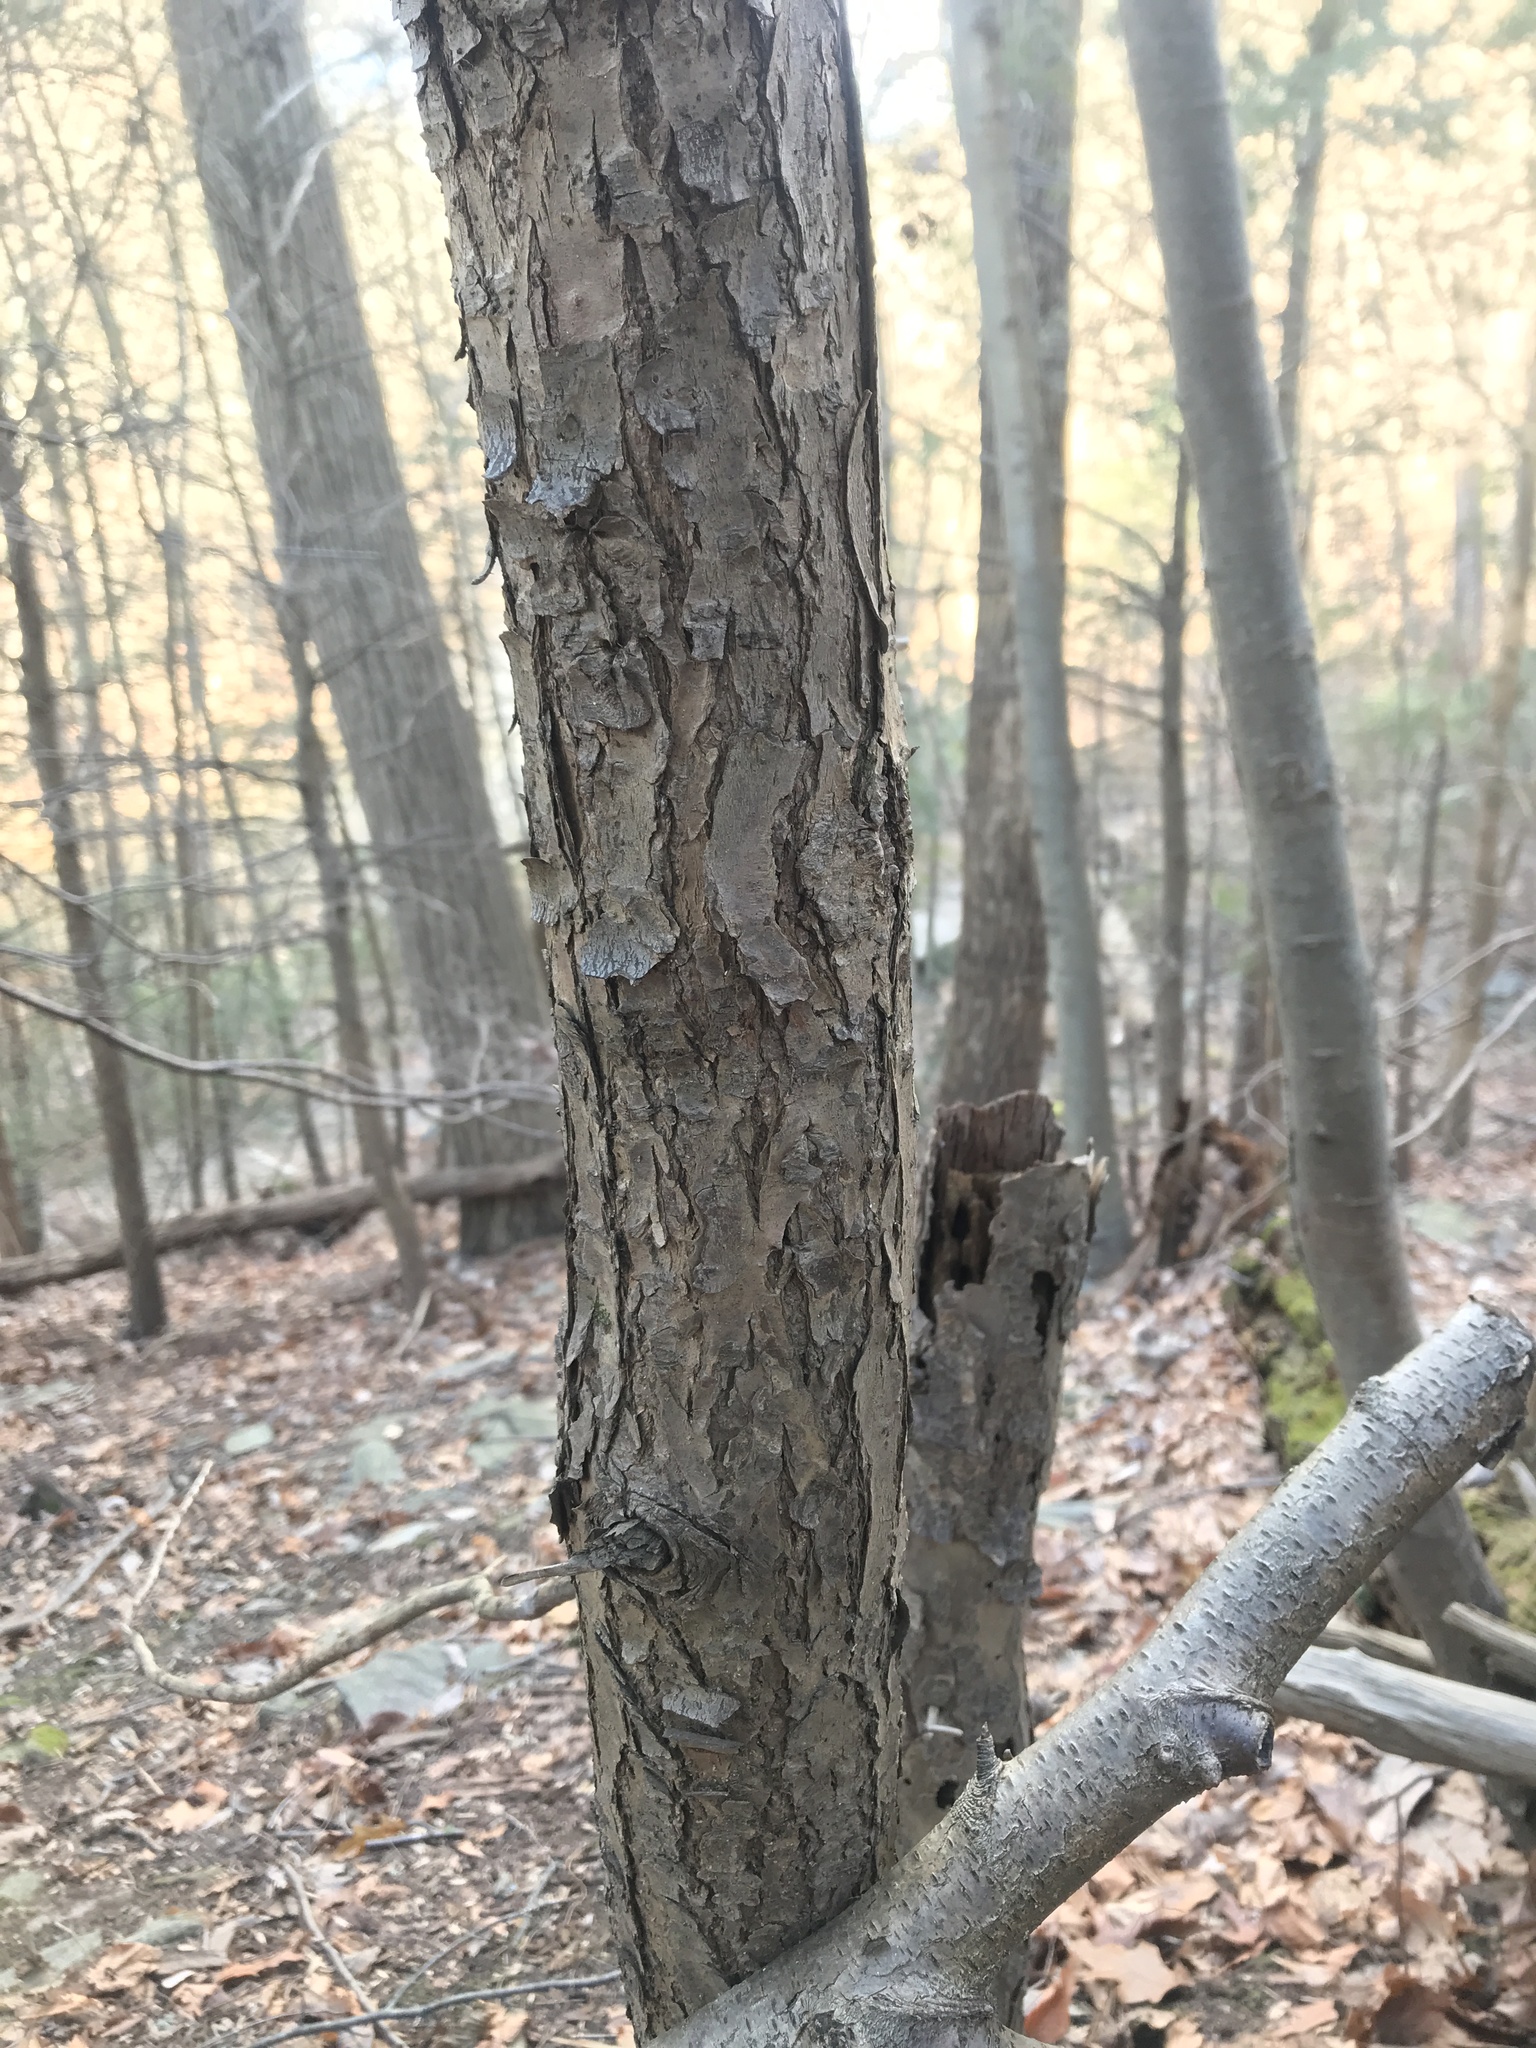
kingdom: Plantae
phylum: Tracheophyta
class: Pinopsida
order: Pinales
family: Pinaceae
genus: Tsuga
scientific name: Tsuga canadensis
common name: Eastern hemlock
